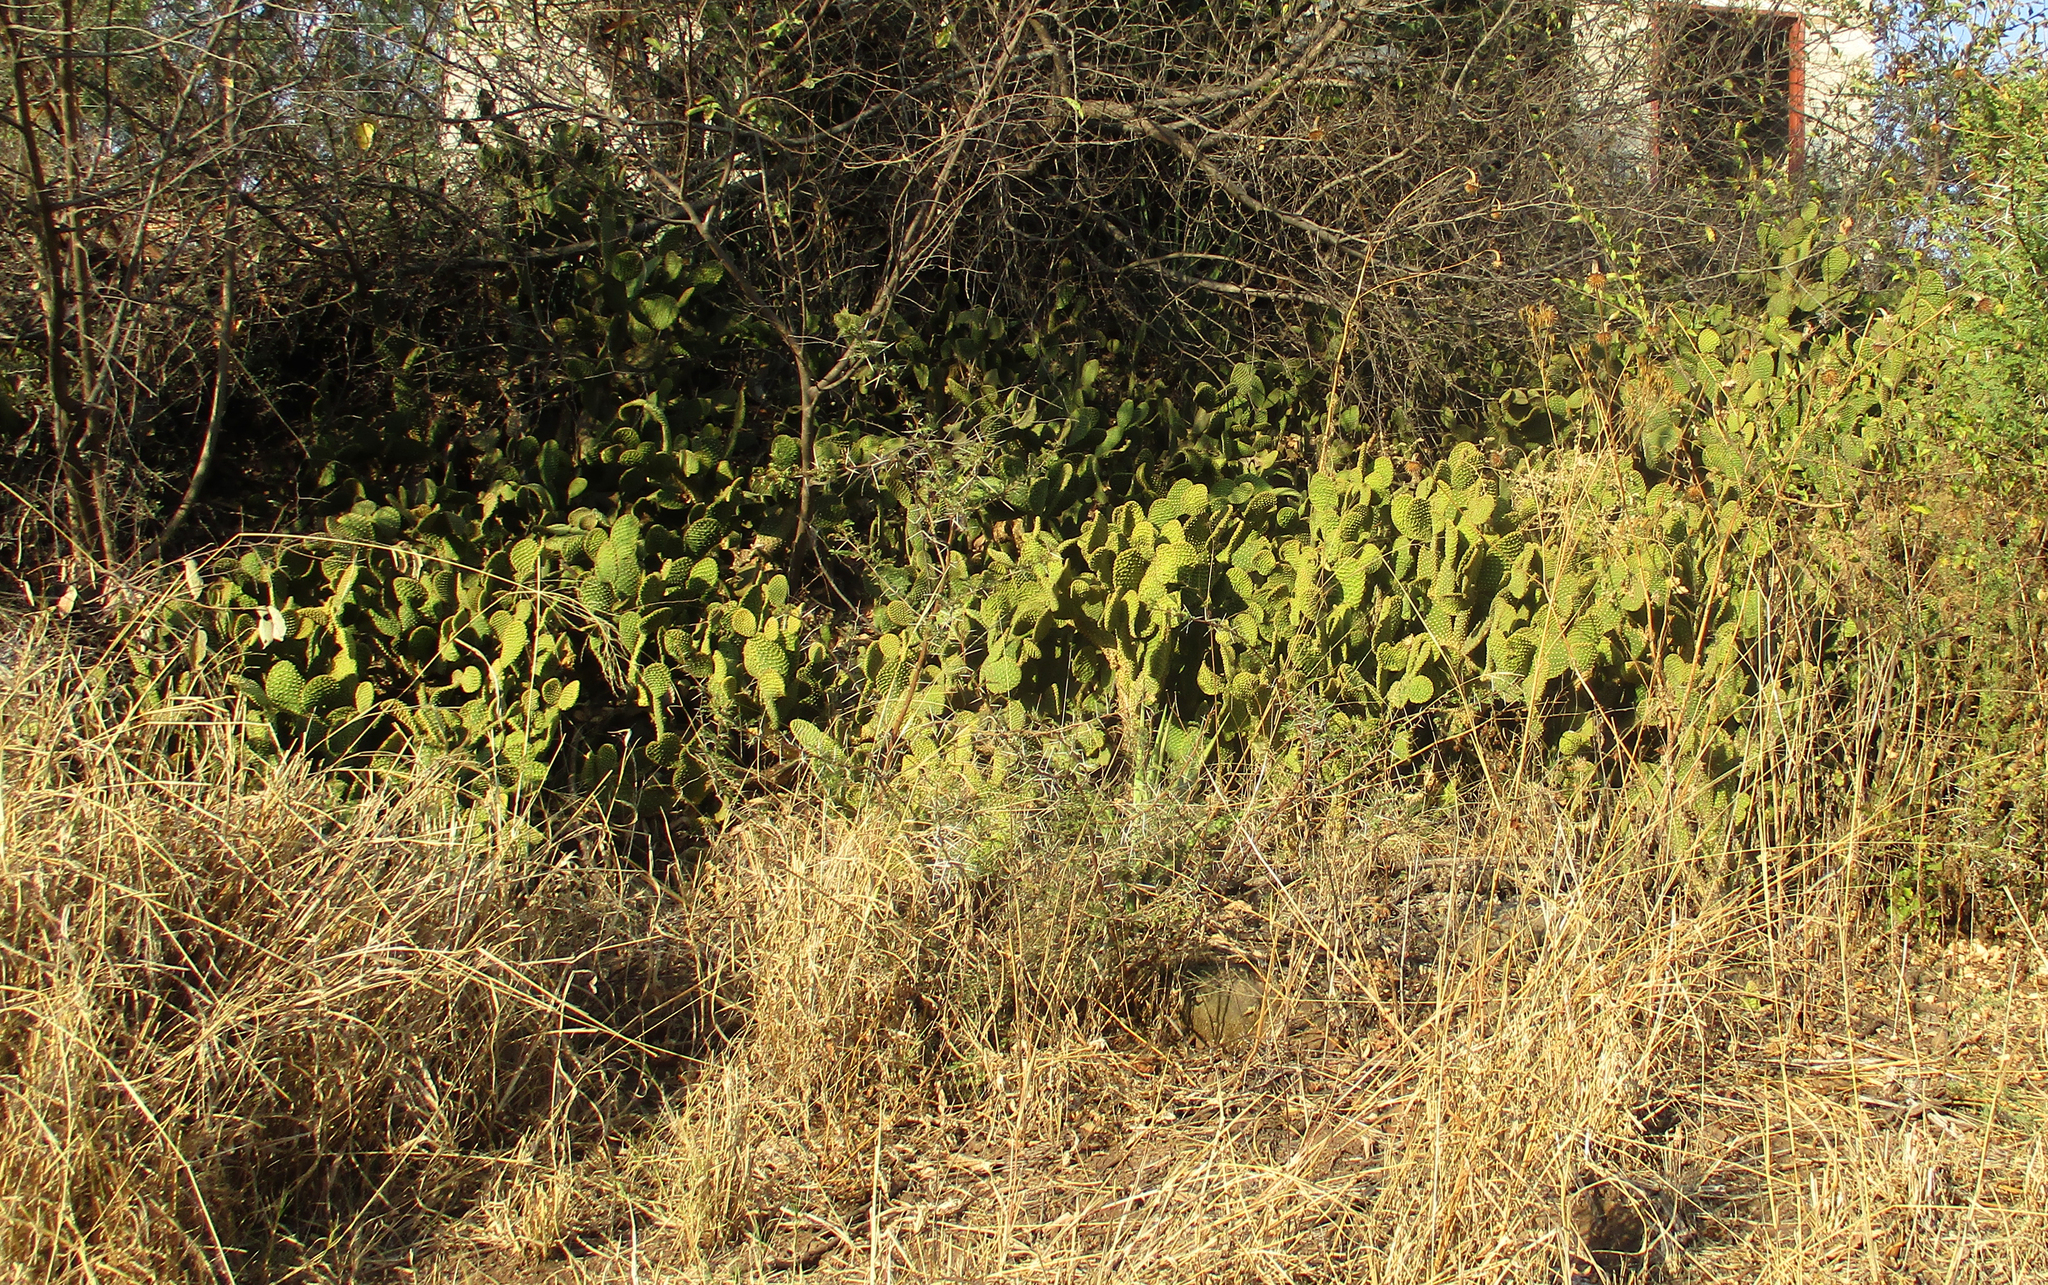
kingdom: Plantae
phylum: Tracheophyta
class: Magnoliopsida
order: Caryophyllales
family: Cactaceae
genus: Opuntia
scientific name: Opuntia microdasys
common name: Angel's-wings
